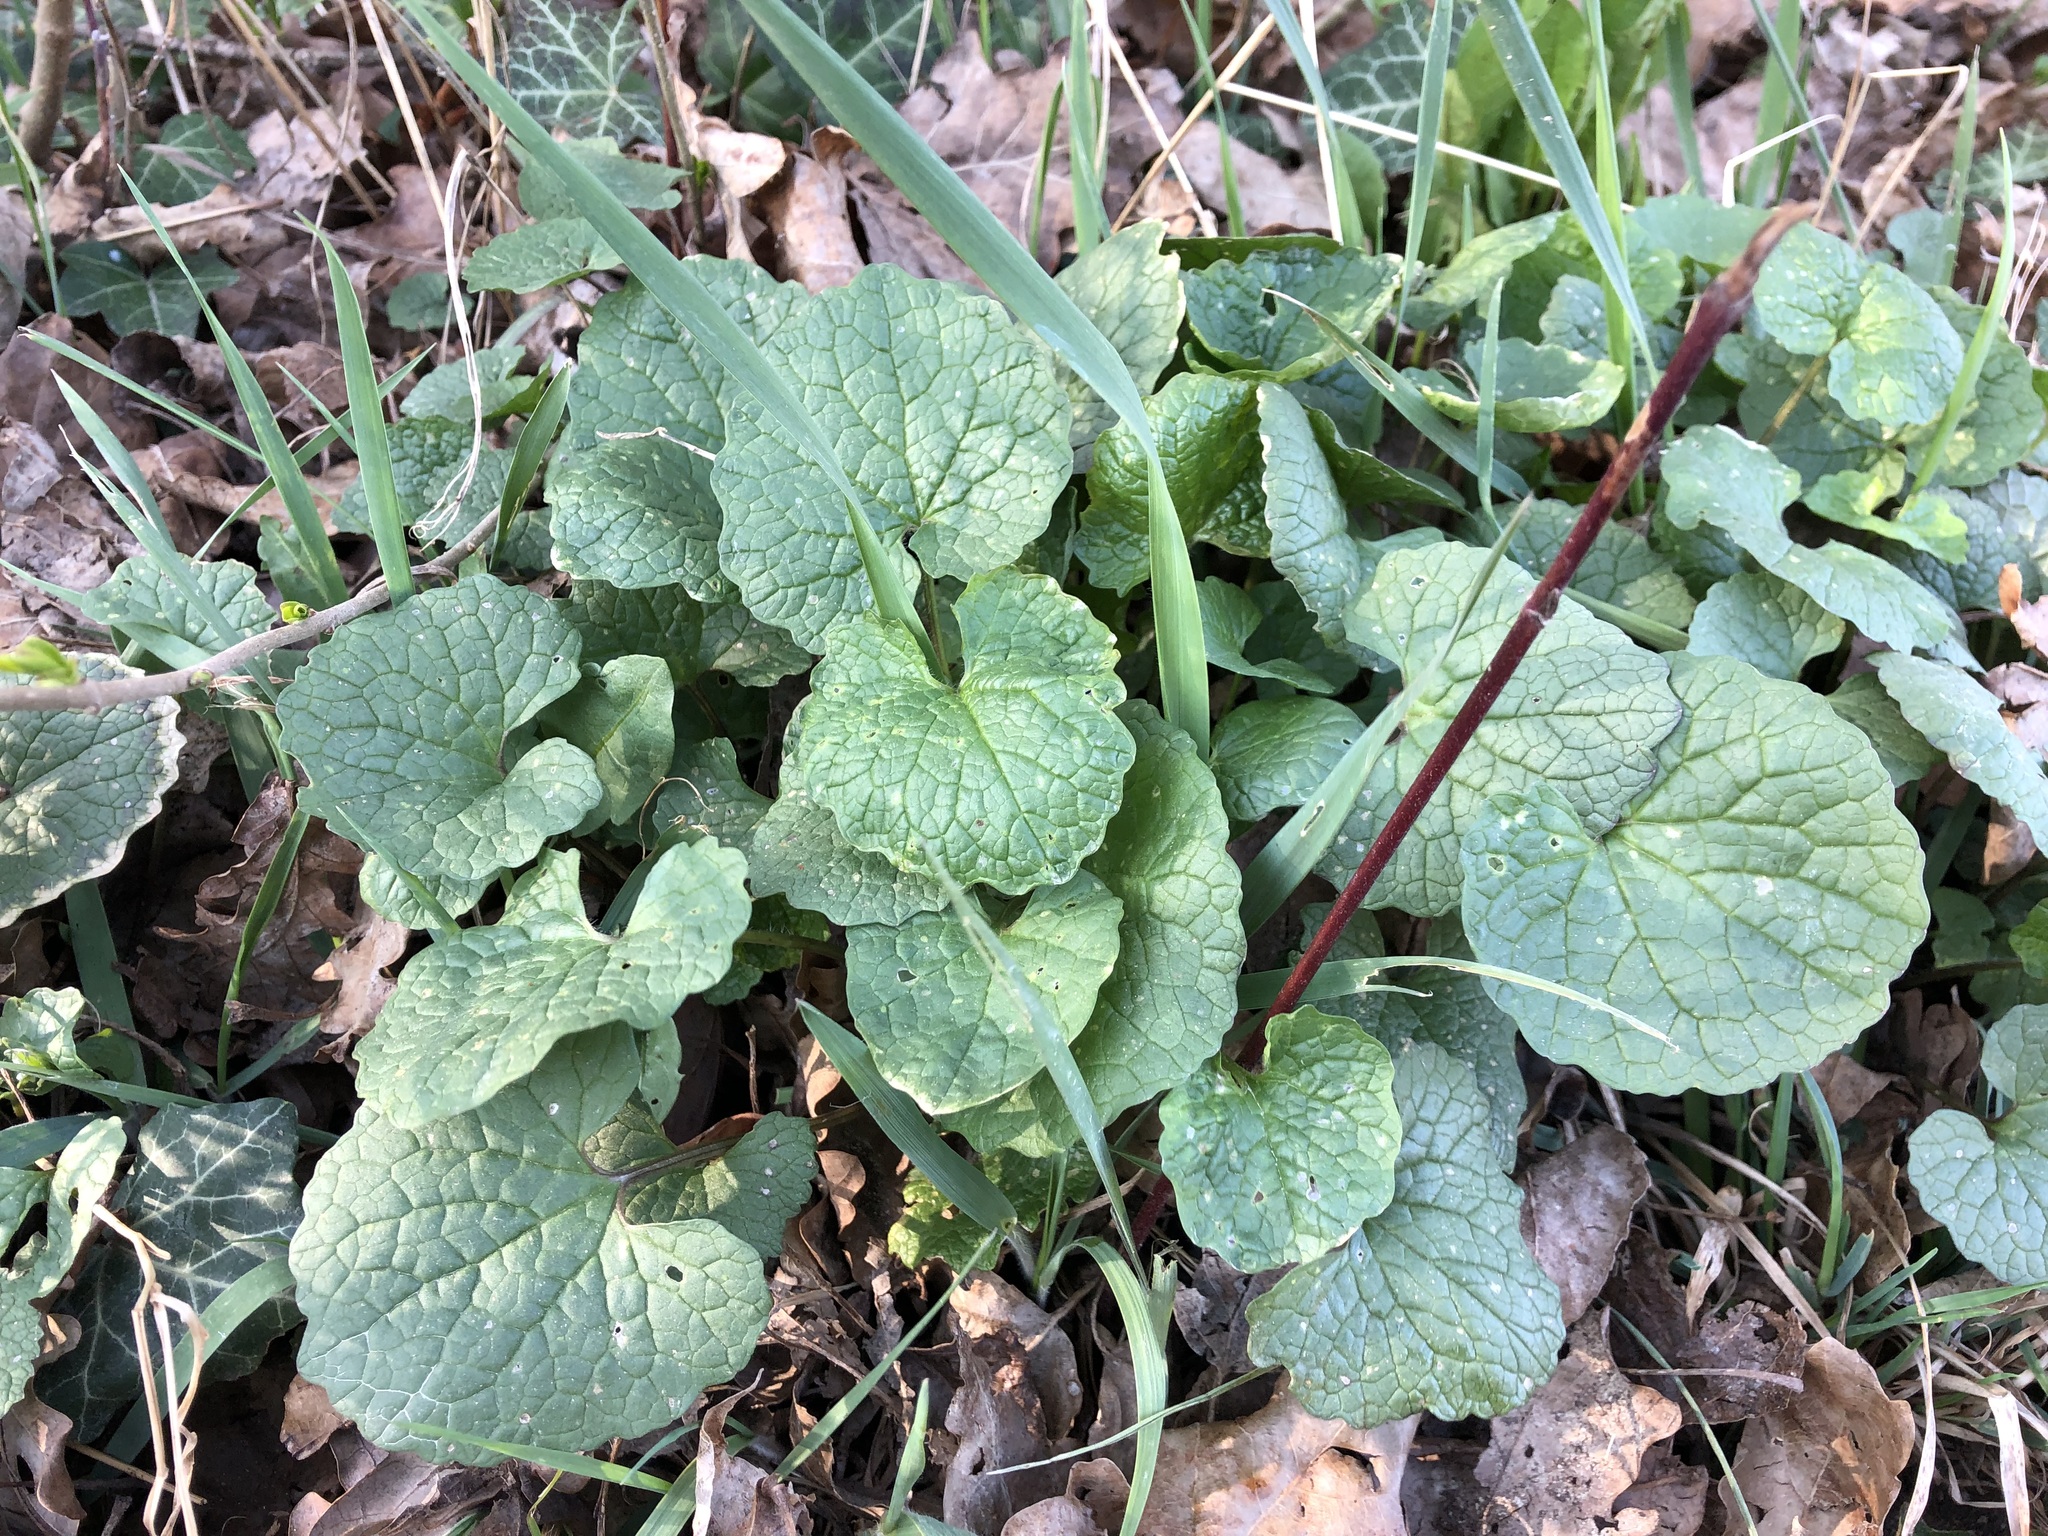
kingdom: Plantae
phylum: Tracheophyta
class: Magnoliopsida
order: Brassicales
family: Brassicaceae
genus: Alliaria
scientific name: Alliaria petiolata
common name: Garlic mustard
